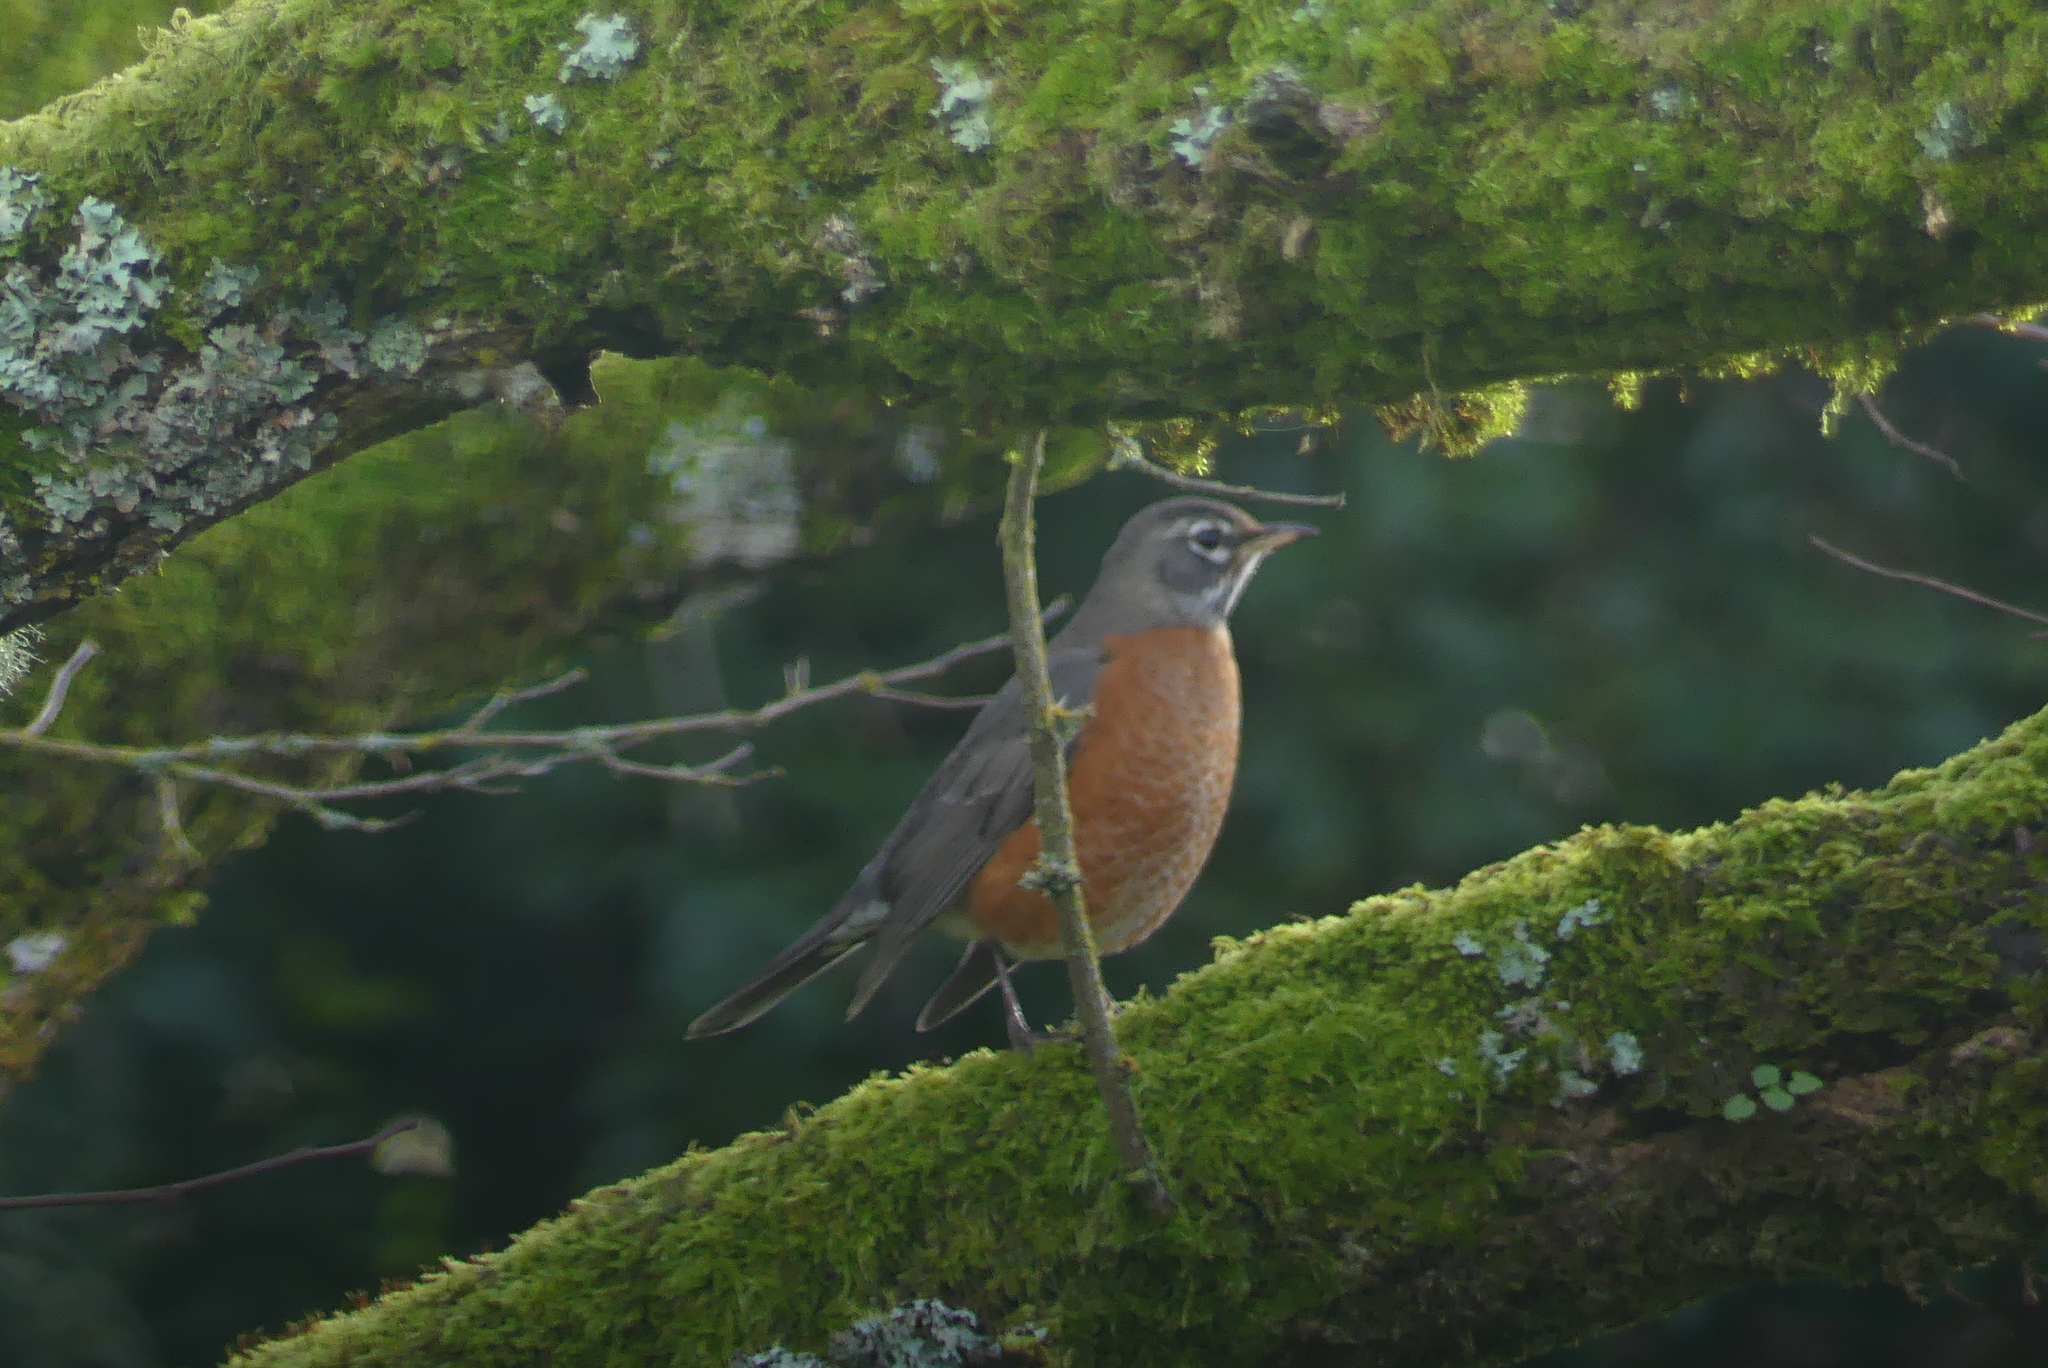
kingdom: Animalia
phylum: Chordata
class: Aves
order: Passeriformes
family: Turdidae
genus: Turdus
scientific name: Turdus migratorius
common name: American robin
